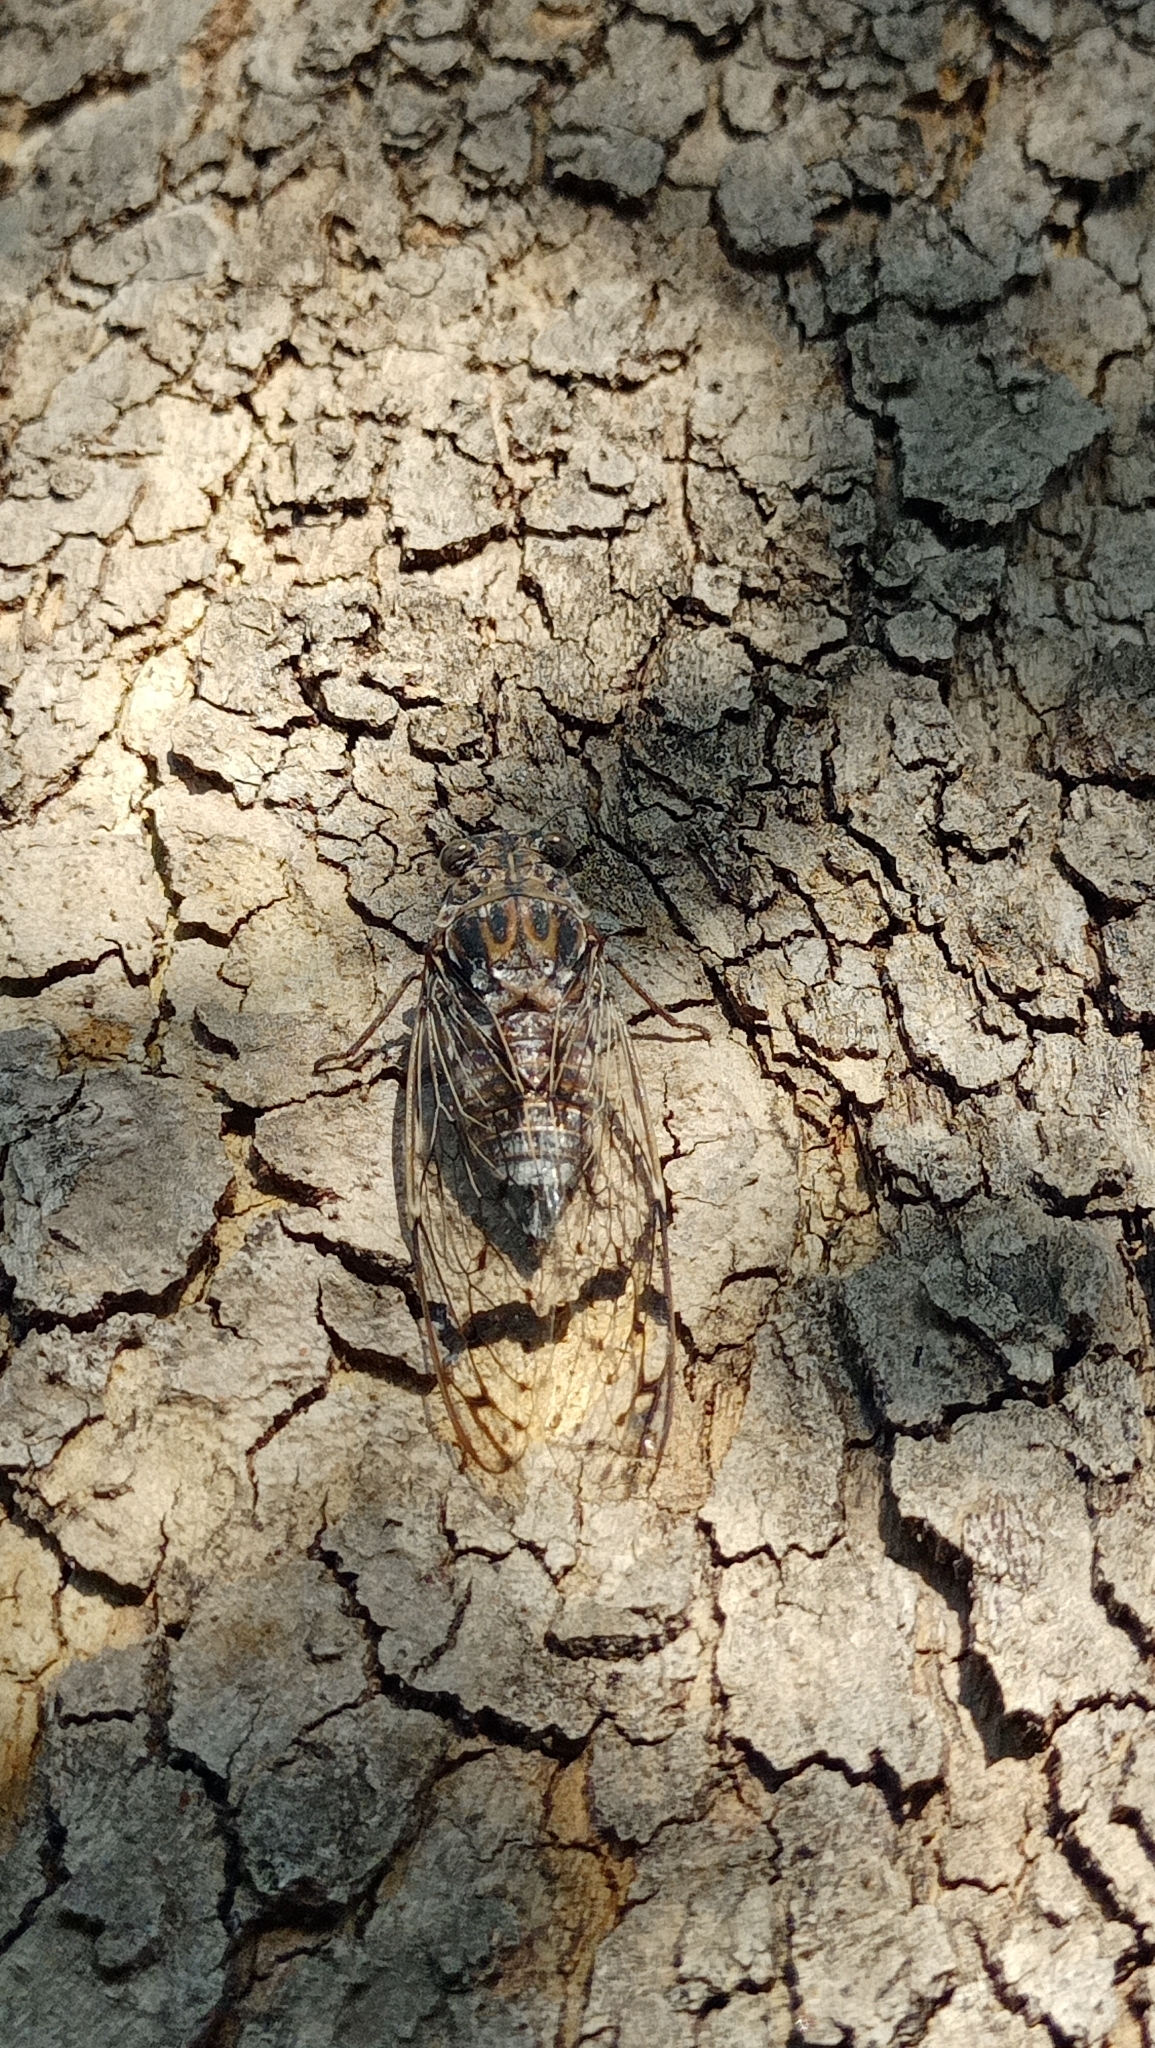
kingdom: Animalia
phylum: Arthropoda
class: Insecta
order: Hemiptera
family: Cicadidae
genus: Cicada
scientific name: Cicada mordoganensis
